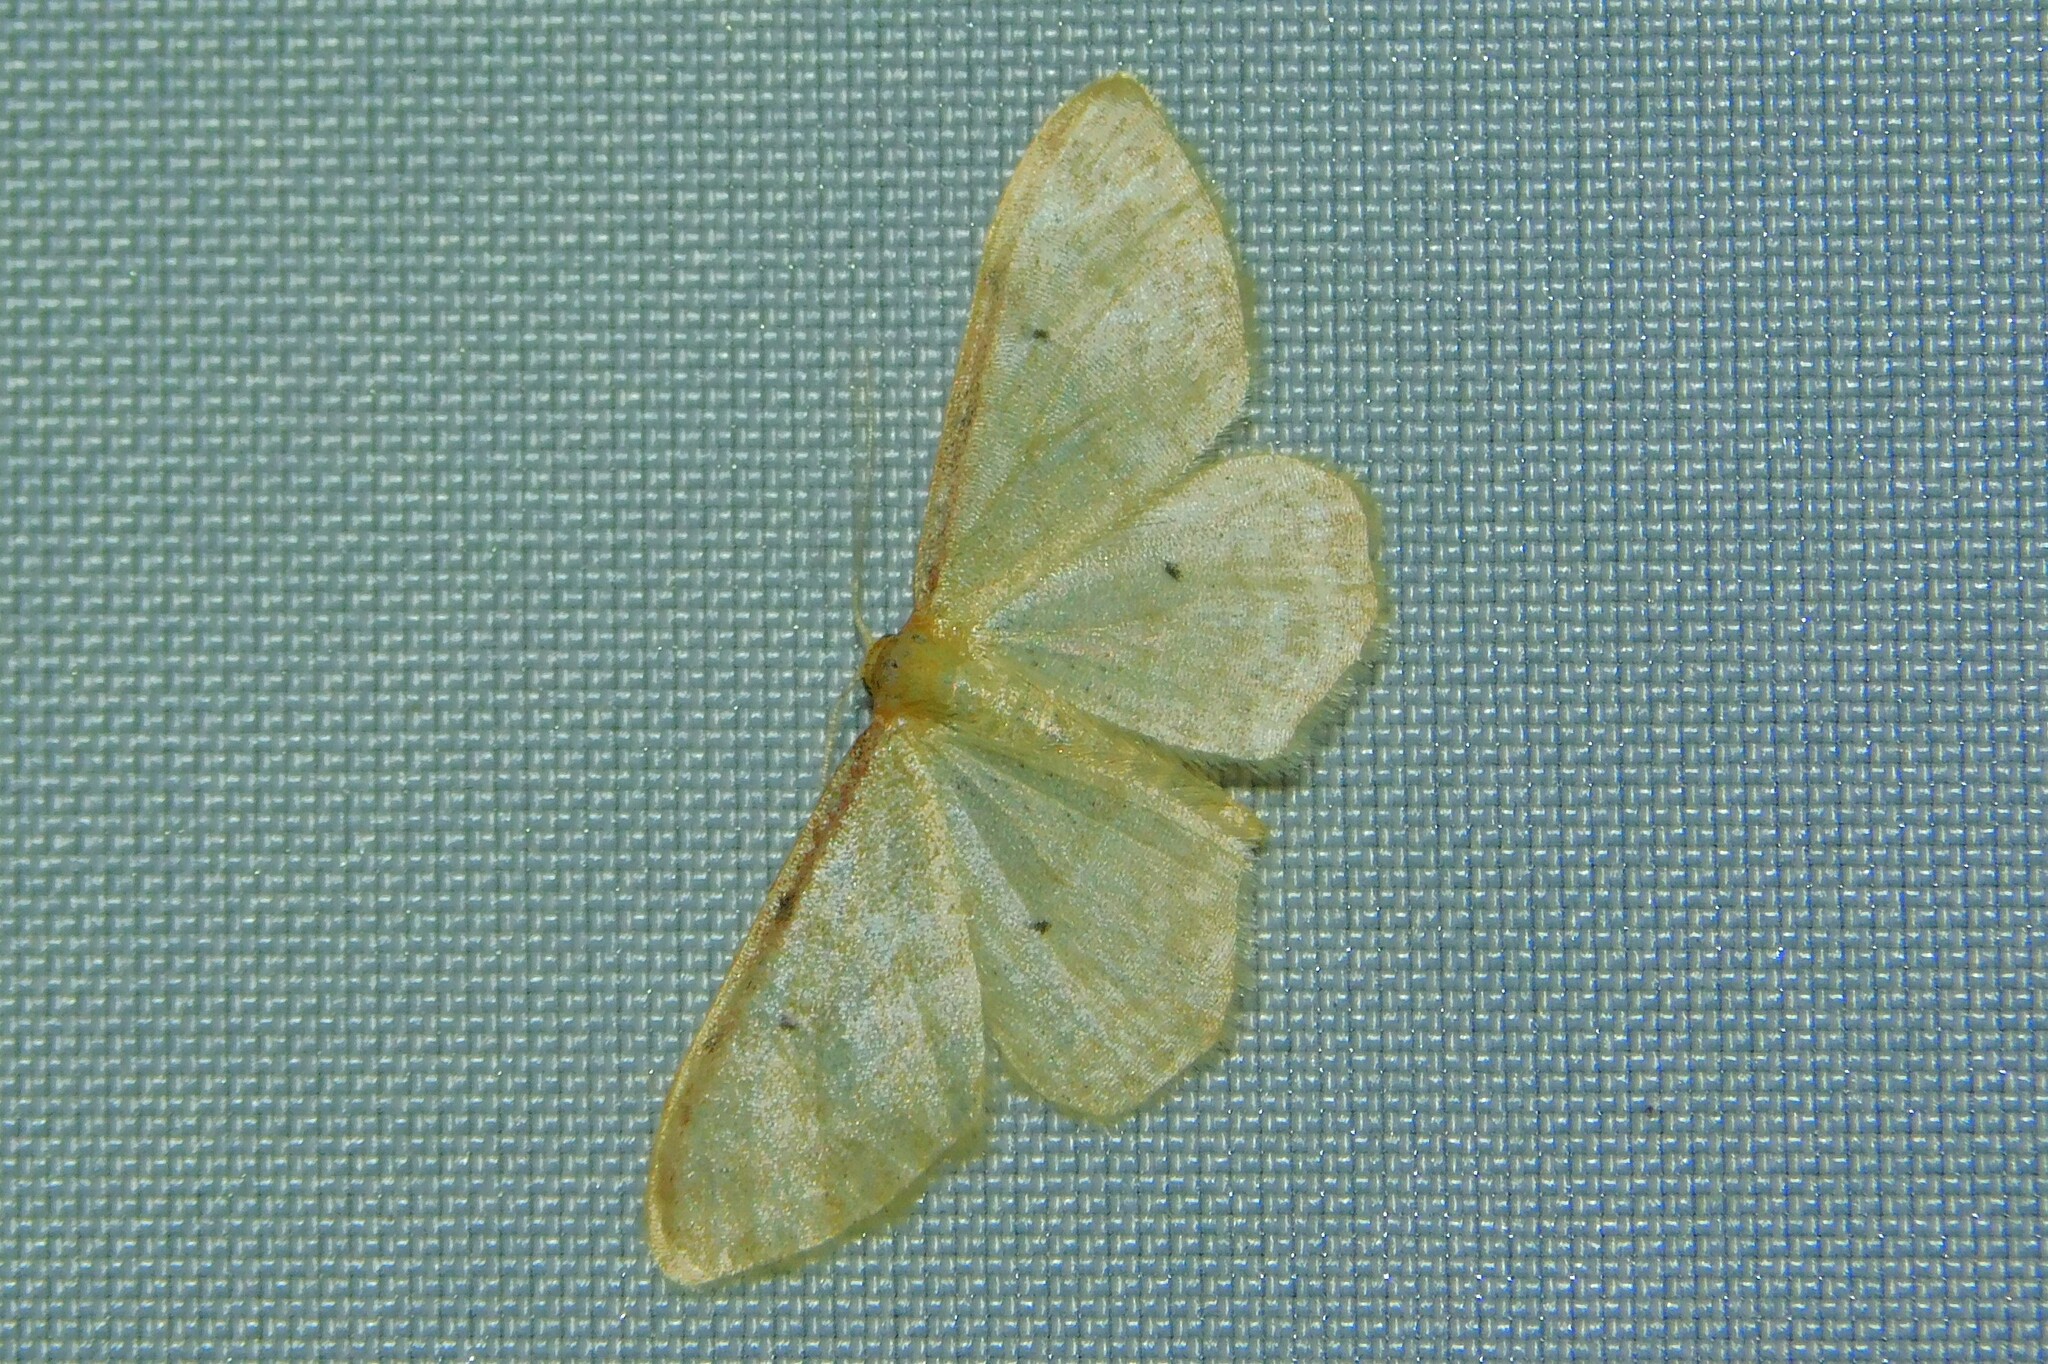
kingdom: Animalia
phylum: Arthropoda
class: Insecta
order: Lepidoptera
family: Geometridae
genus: Idaea
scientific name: Idaea humiliata
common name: Isle of wight wave
